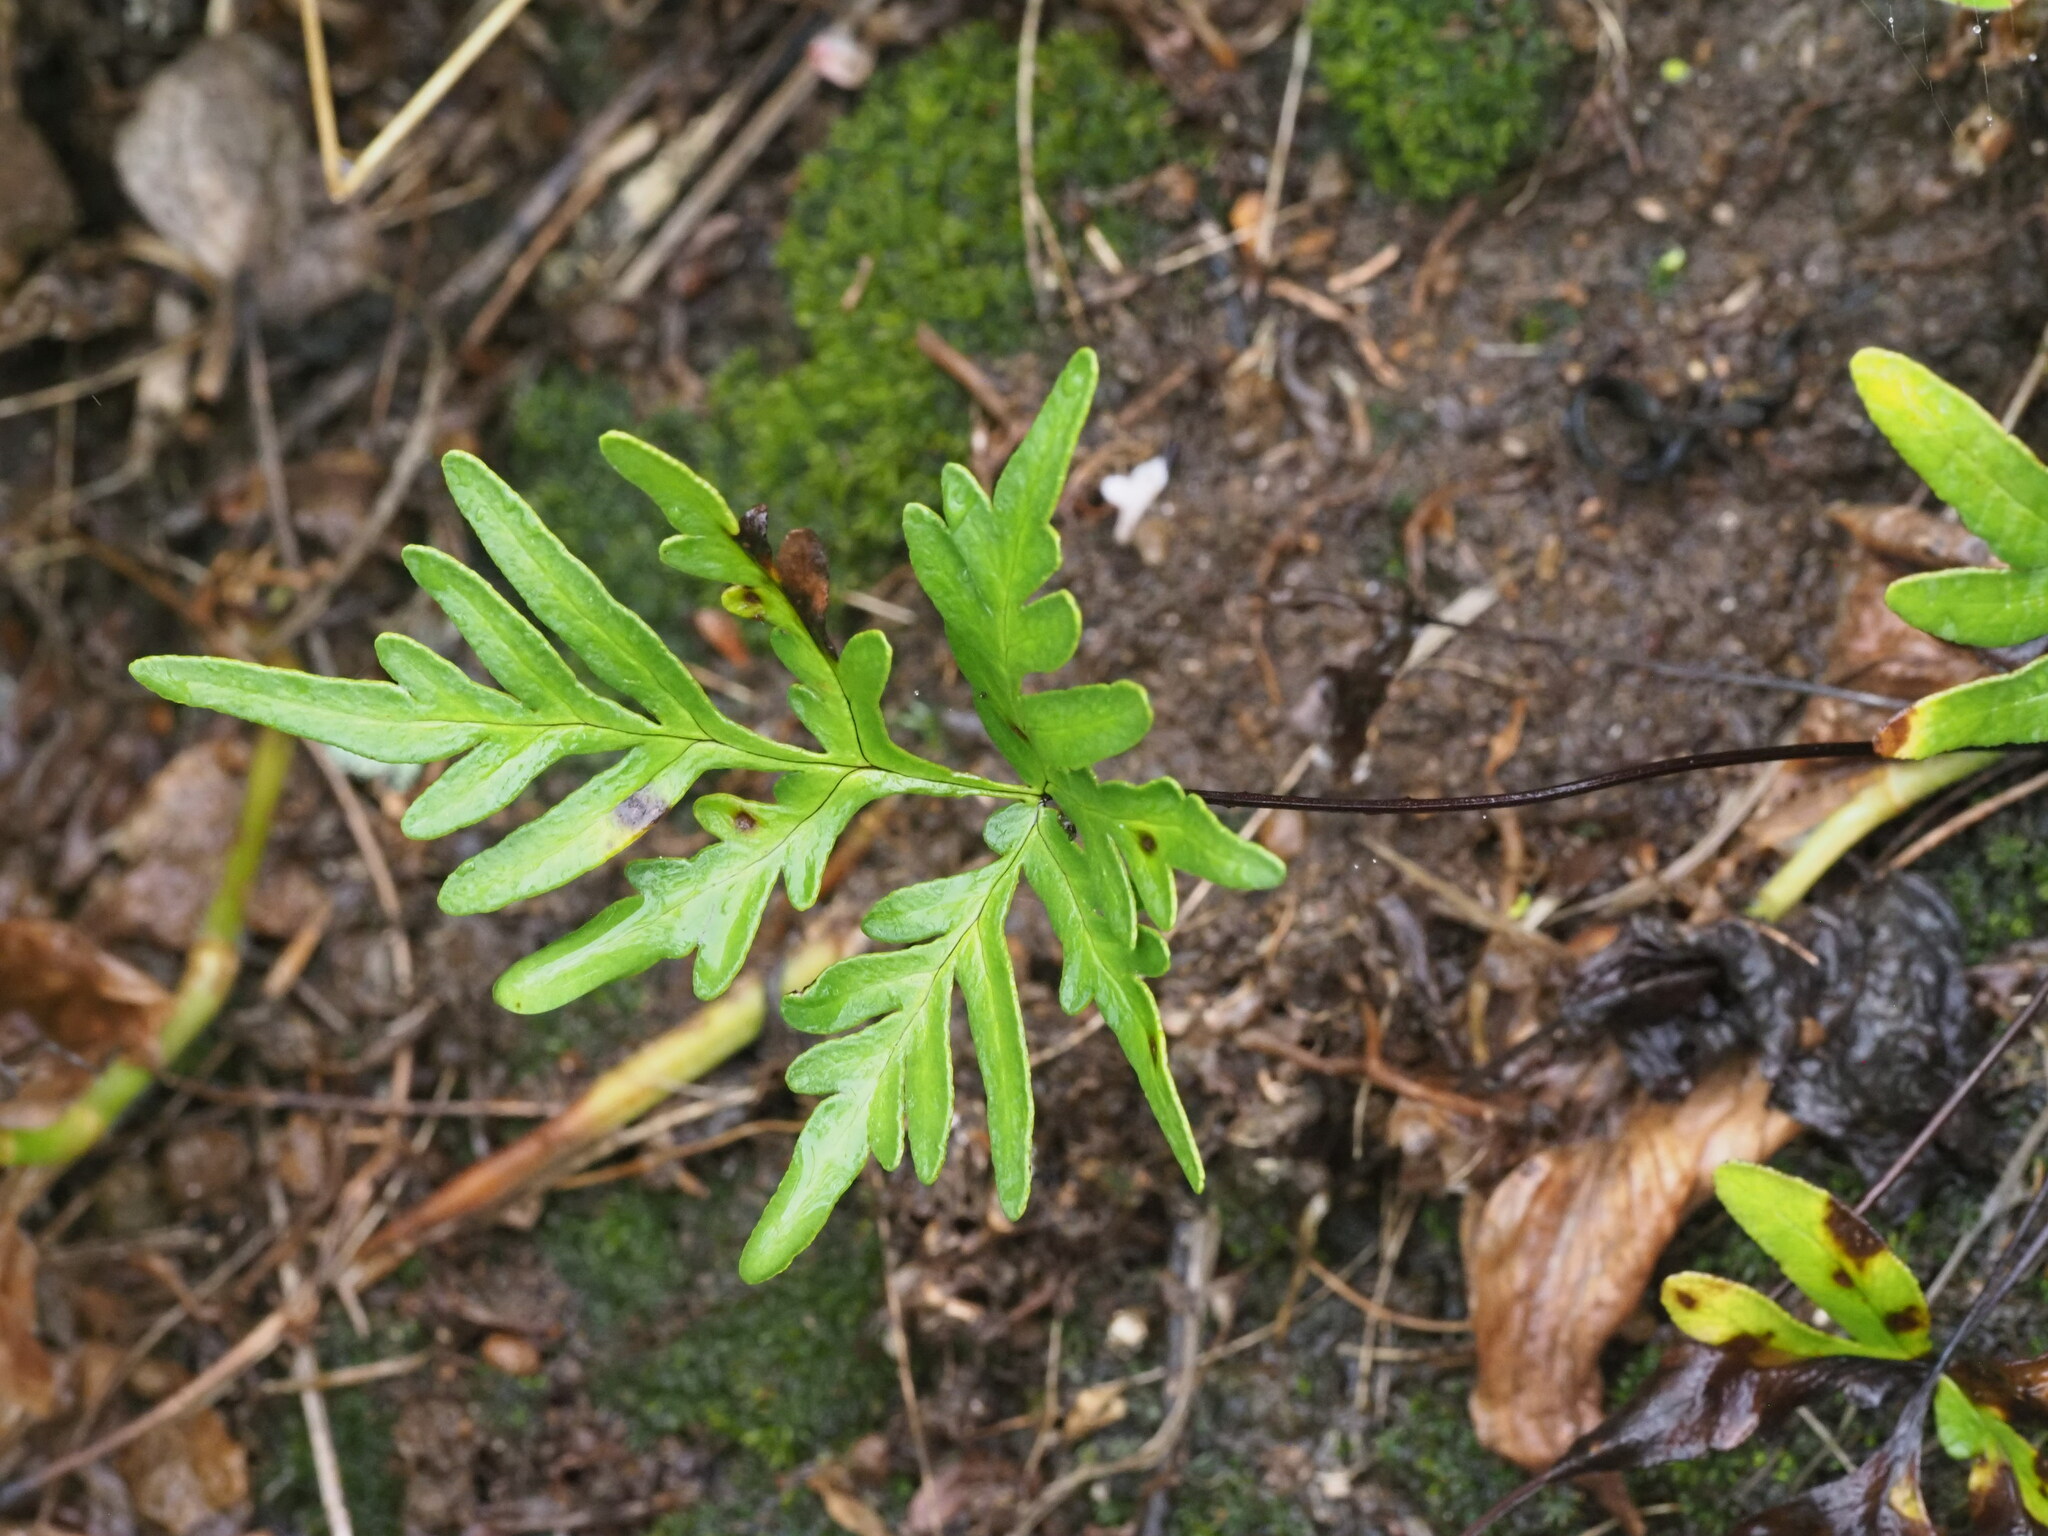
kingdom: Plantae
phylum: Tracheophyta
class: Polypodiopsida
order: Polypodiales
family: Pteridaceae
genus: Doryopteris
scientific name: Doryopteris decipiens
